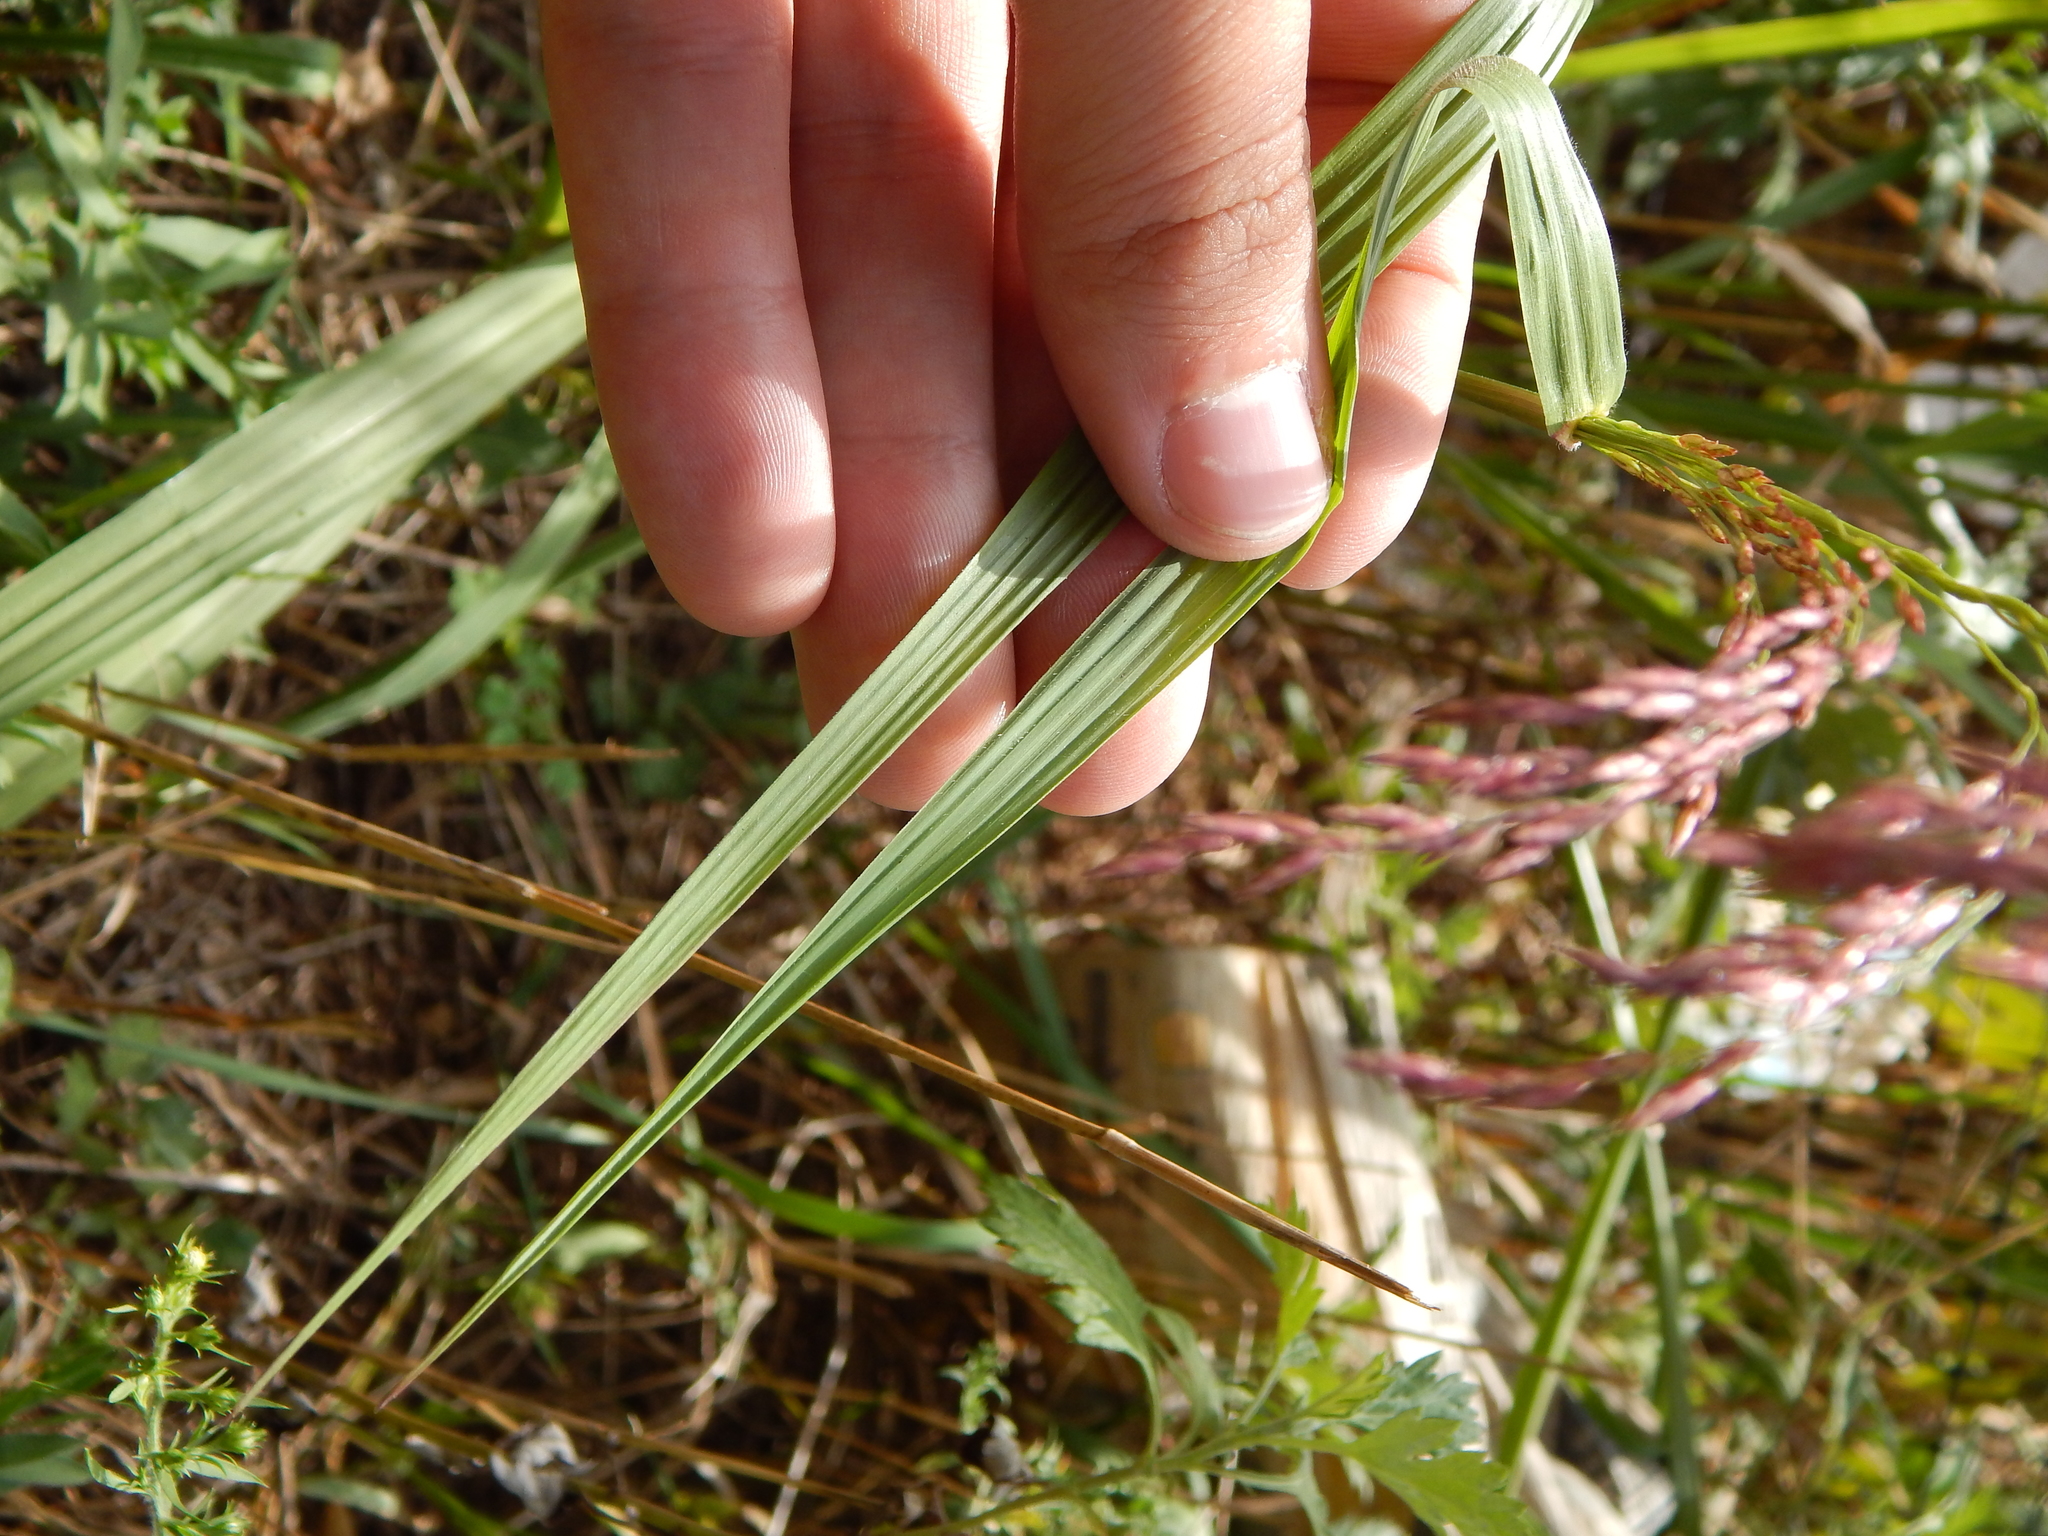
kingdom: Plantae
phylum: Tracheophyta
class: Liliopsida
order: Poales
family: Poaceae
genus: Tridens
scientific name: Tridens flavus
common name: Purpletop
